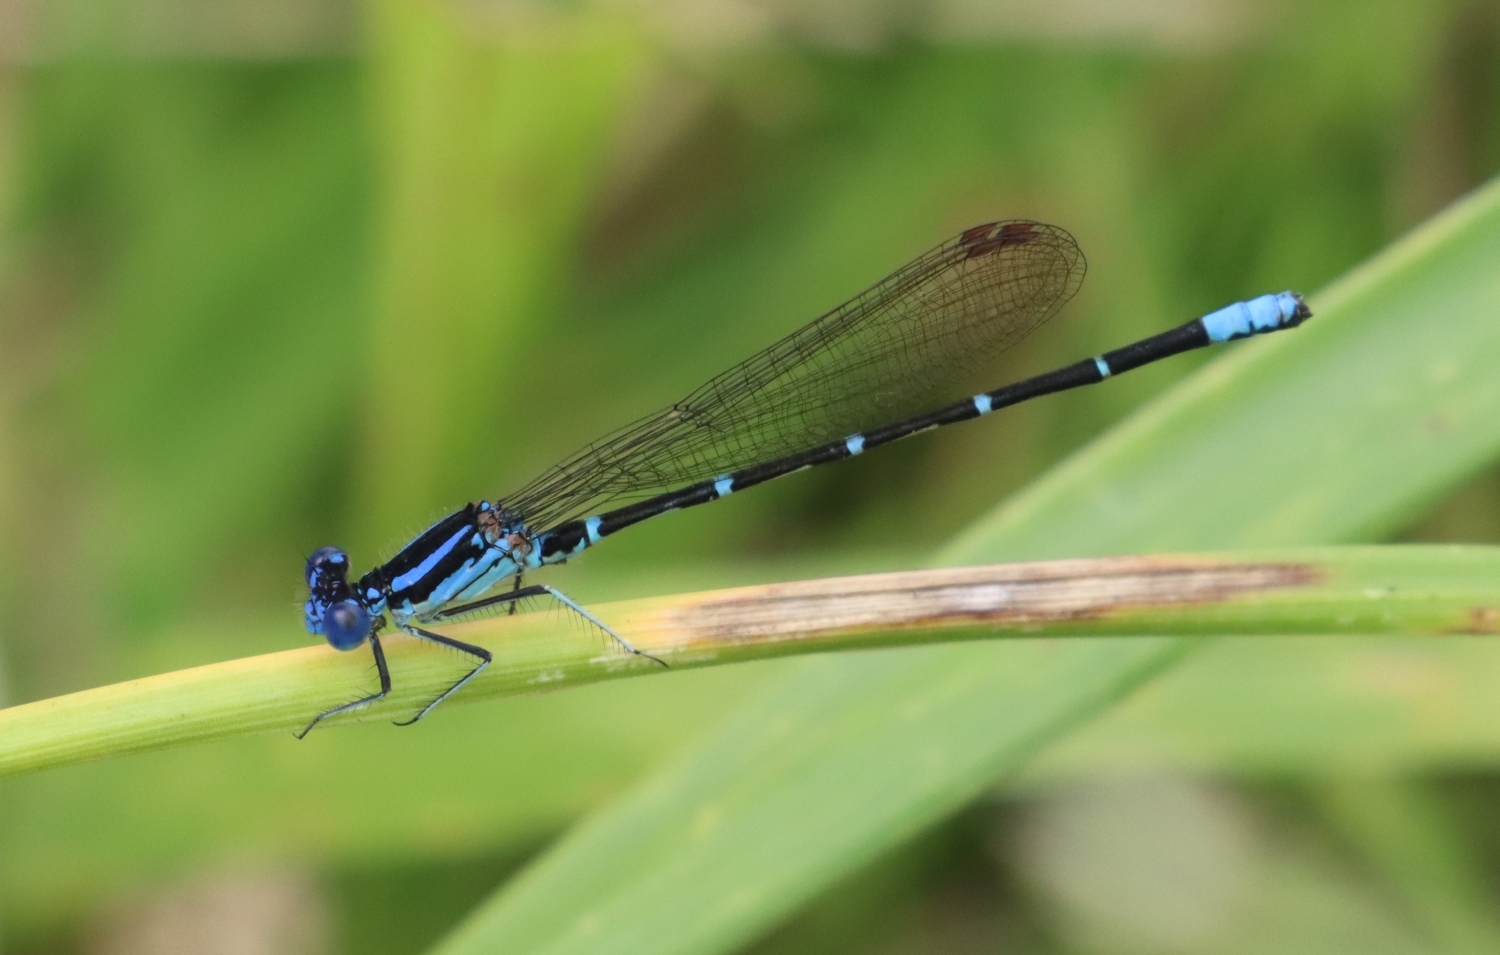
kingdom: Animalia
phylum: Arthropoda
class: Insecta
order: Odonata
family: Coenagrionidae
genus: Argia
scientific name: Argia sedula
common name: Blue-ringed dancer
